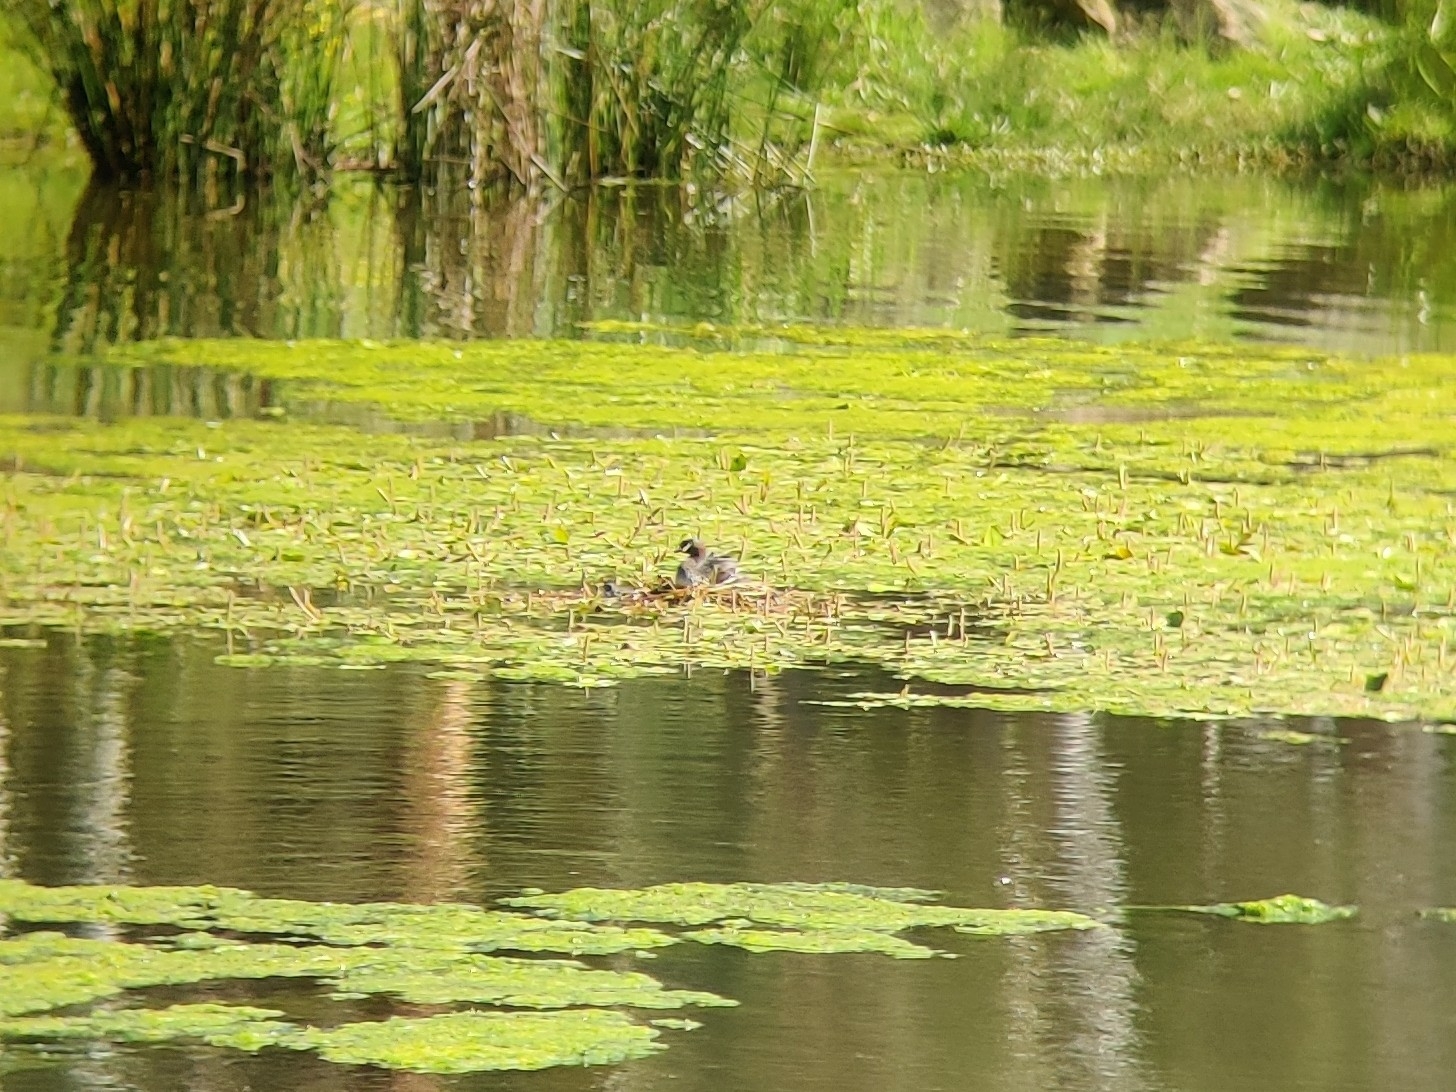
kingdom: Animalia
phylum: Chordata
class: Aves
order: Podicipediformes
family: Podicipedidae
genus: Tachybaptus
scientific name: Tachybaptus novaehollandiae
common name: Australasian grebe
